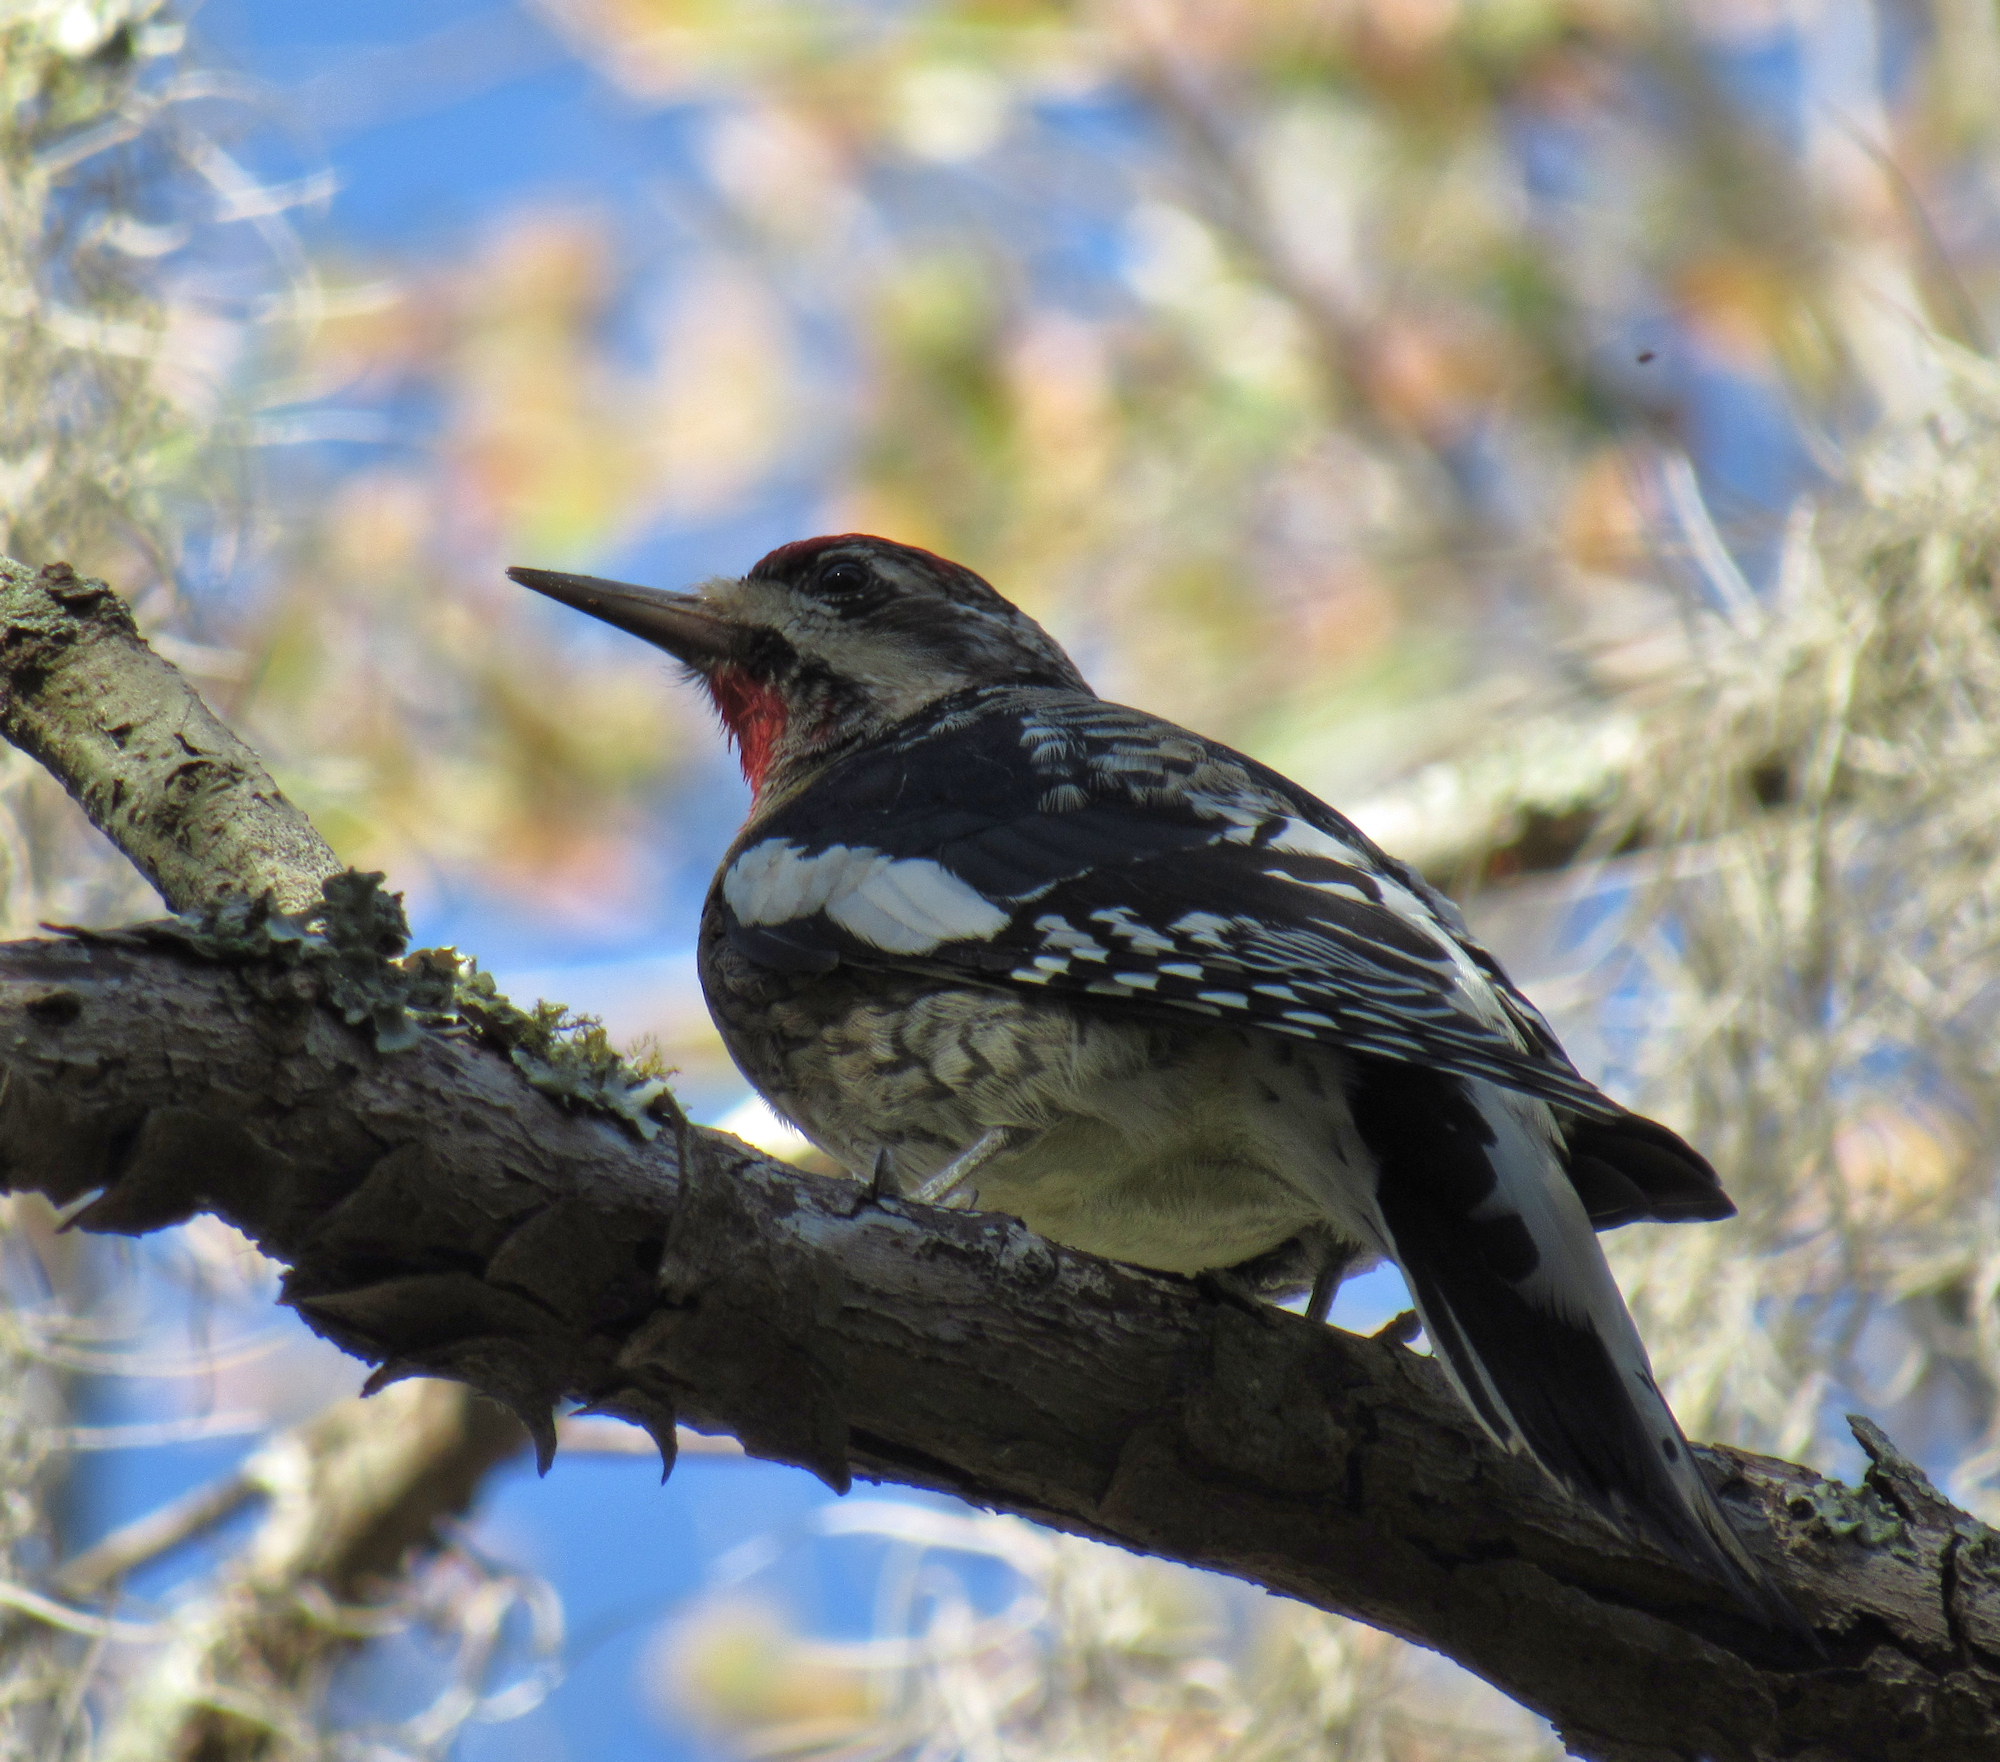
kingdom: Animalia
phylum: Chordata
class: Aves
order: Piciformes
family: Picidae
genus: Sphyrapicus
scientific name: Sphyrapicus varius
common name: Yellow-bellied sapsucker
